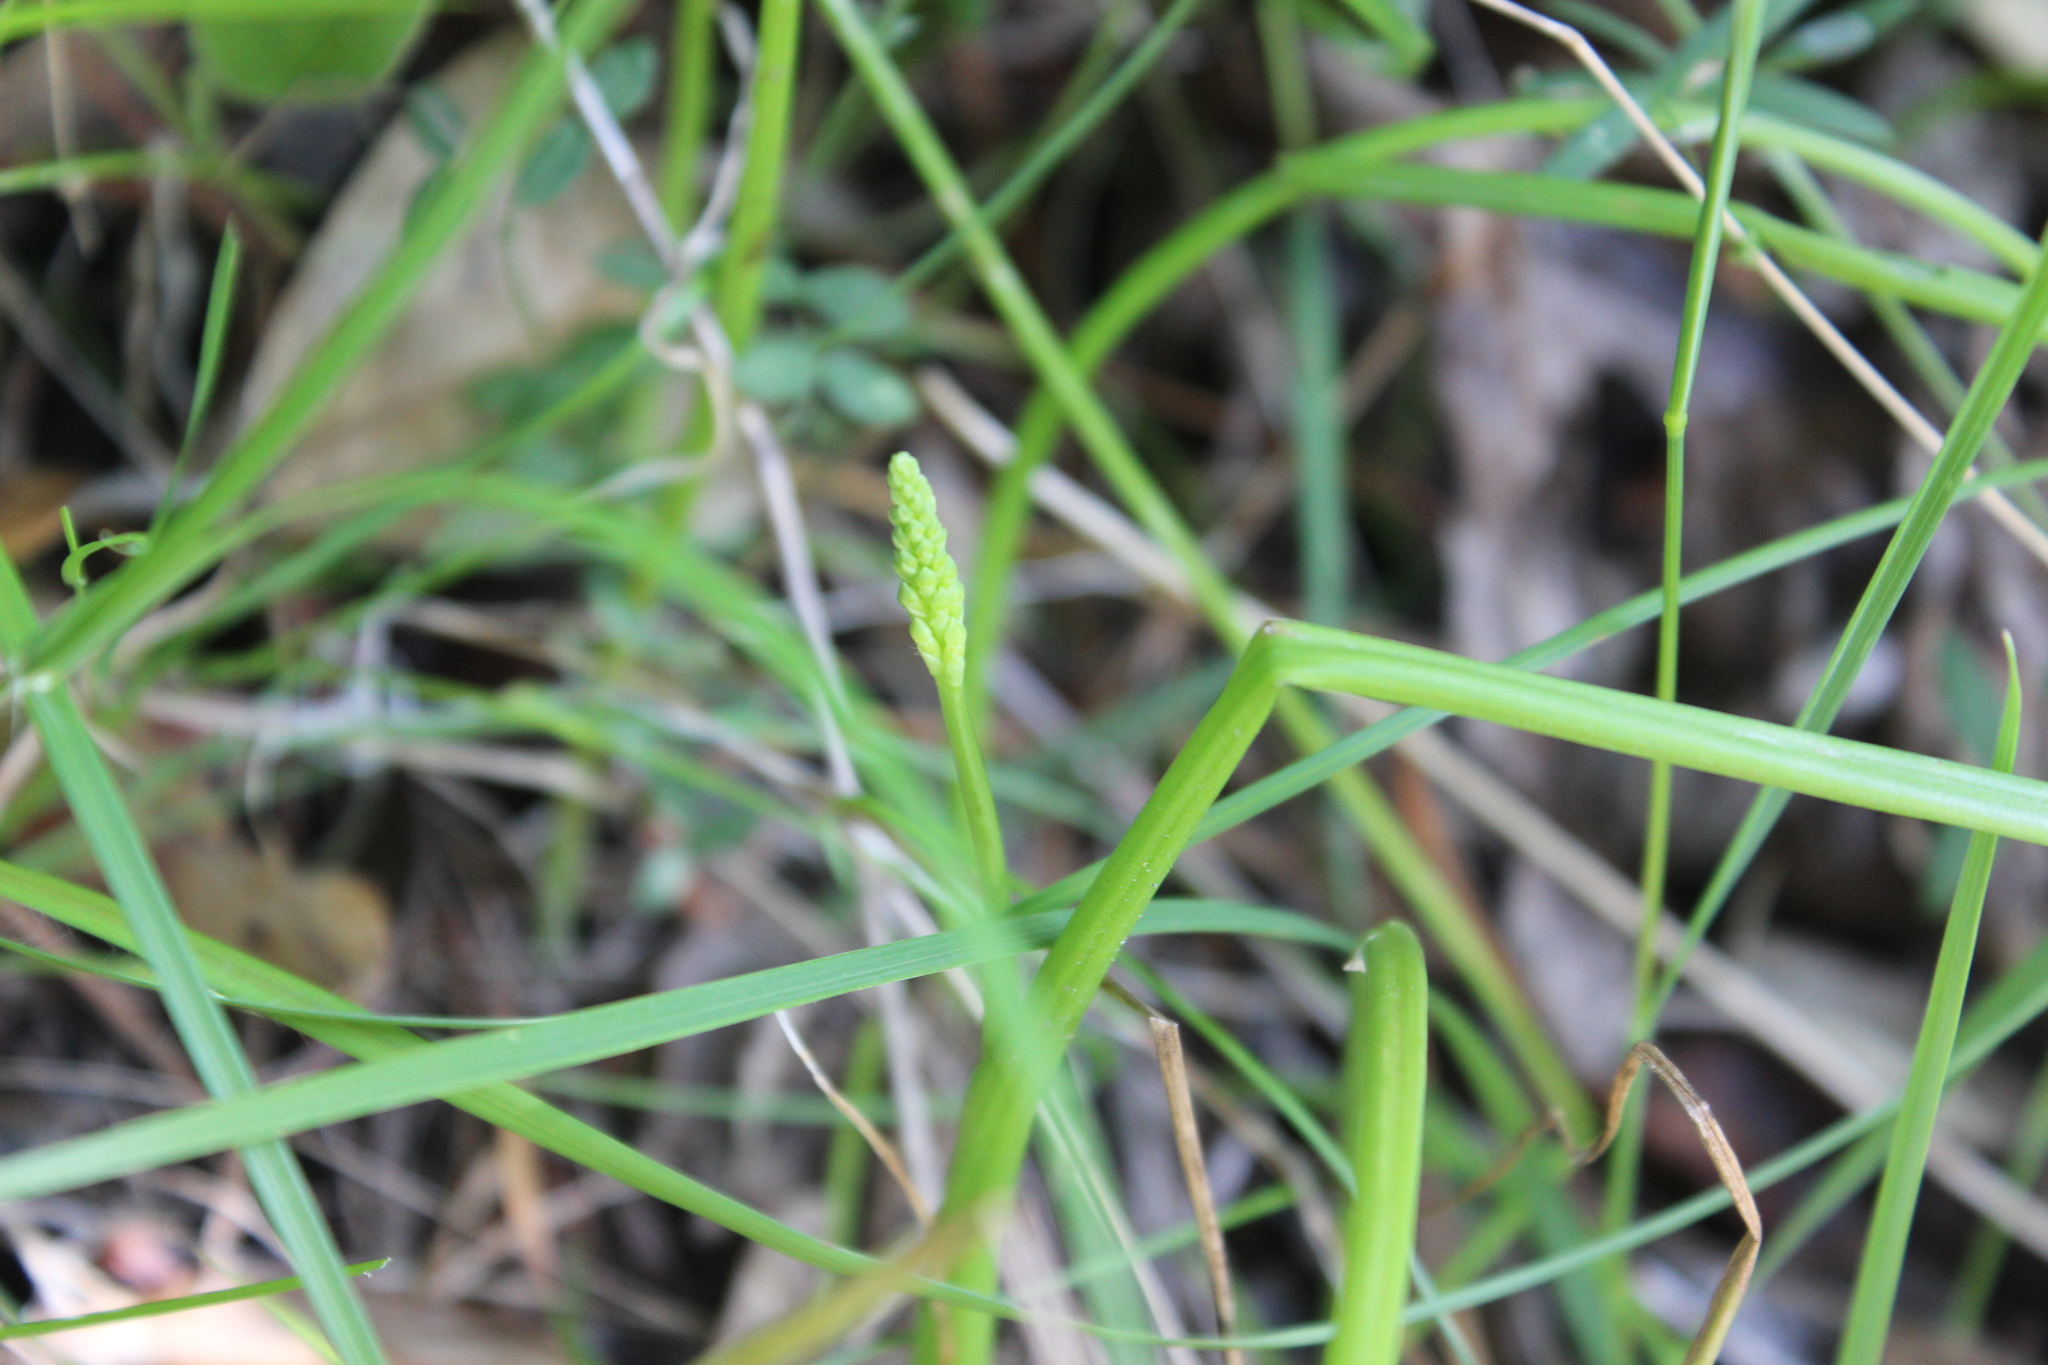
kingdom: Plantae
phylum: Tracheophyta
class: Liliopsida
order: Asparagales
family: Orchidaceae
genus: Microtis
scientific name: Microtis unifolia
